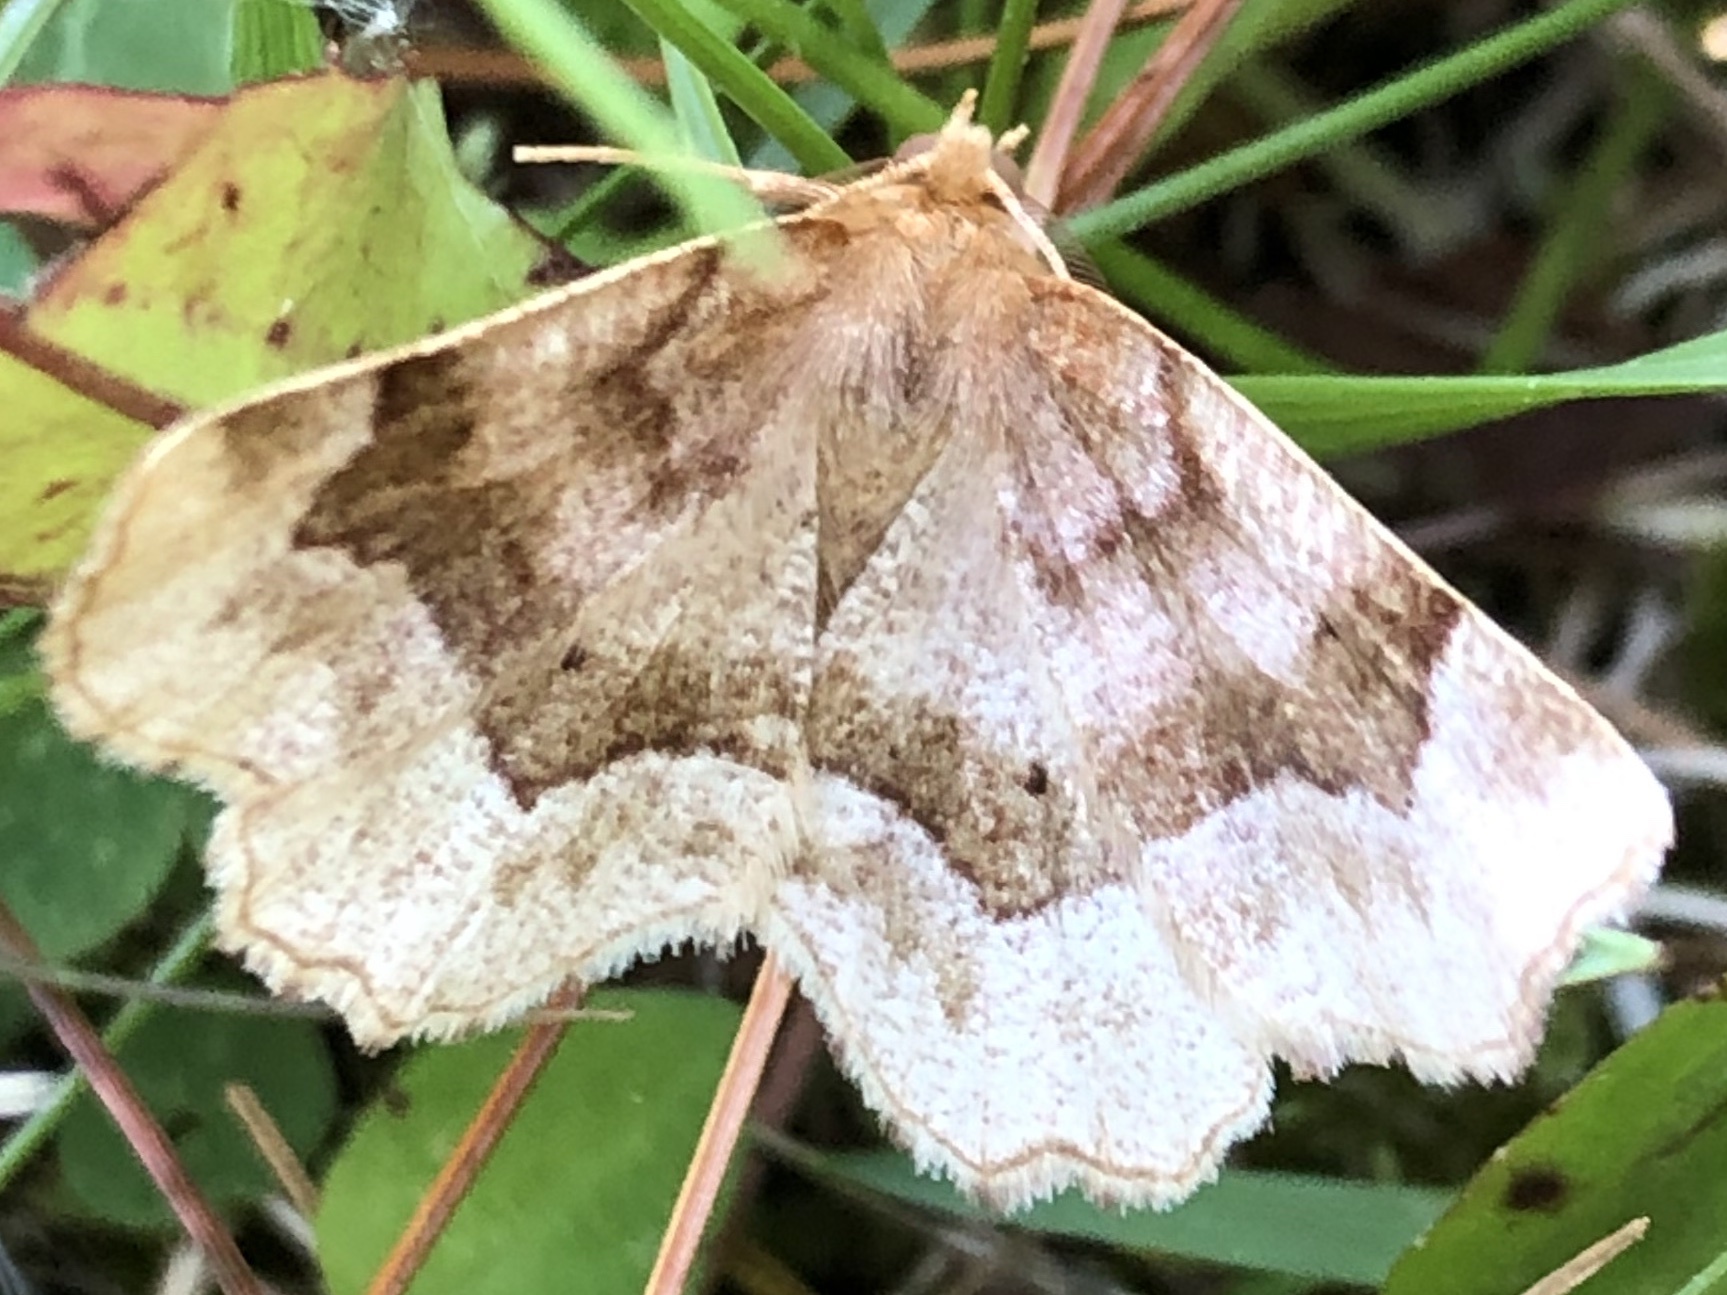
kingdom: Animalia
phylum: Arthropoda
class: Insecta
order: Lepidoptera
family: Geometridae
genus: Metarranthis
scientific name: Metarranthis indeclinata
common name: Pale metarranthis
